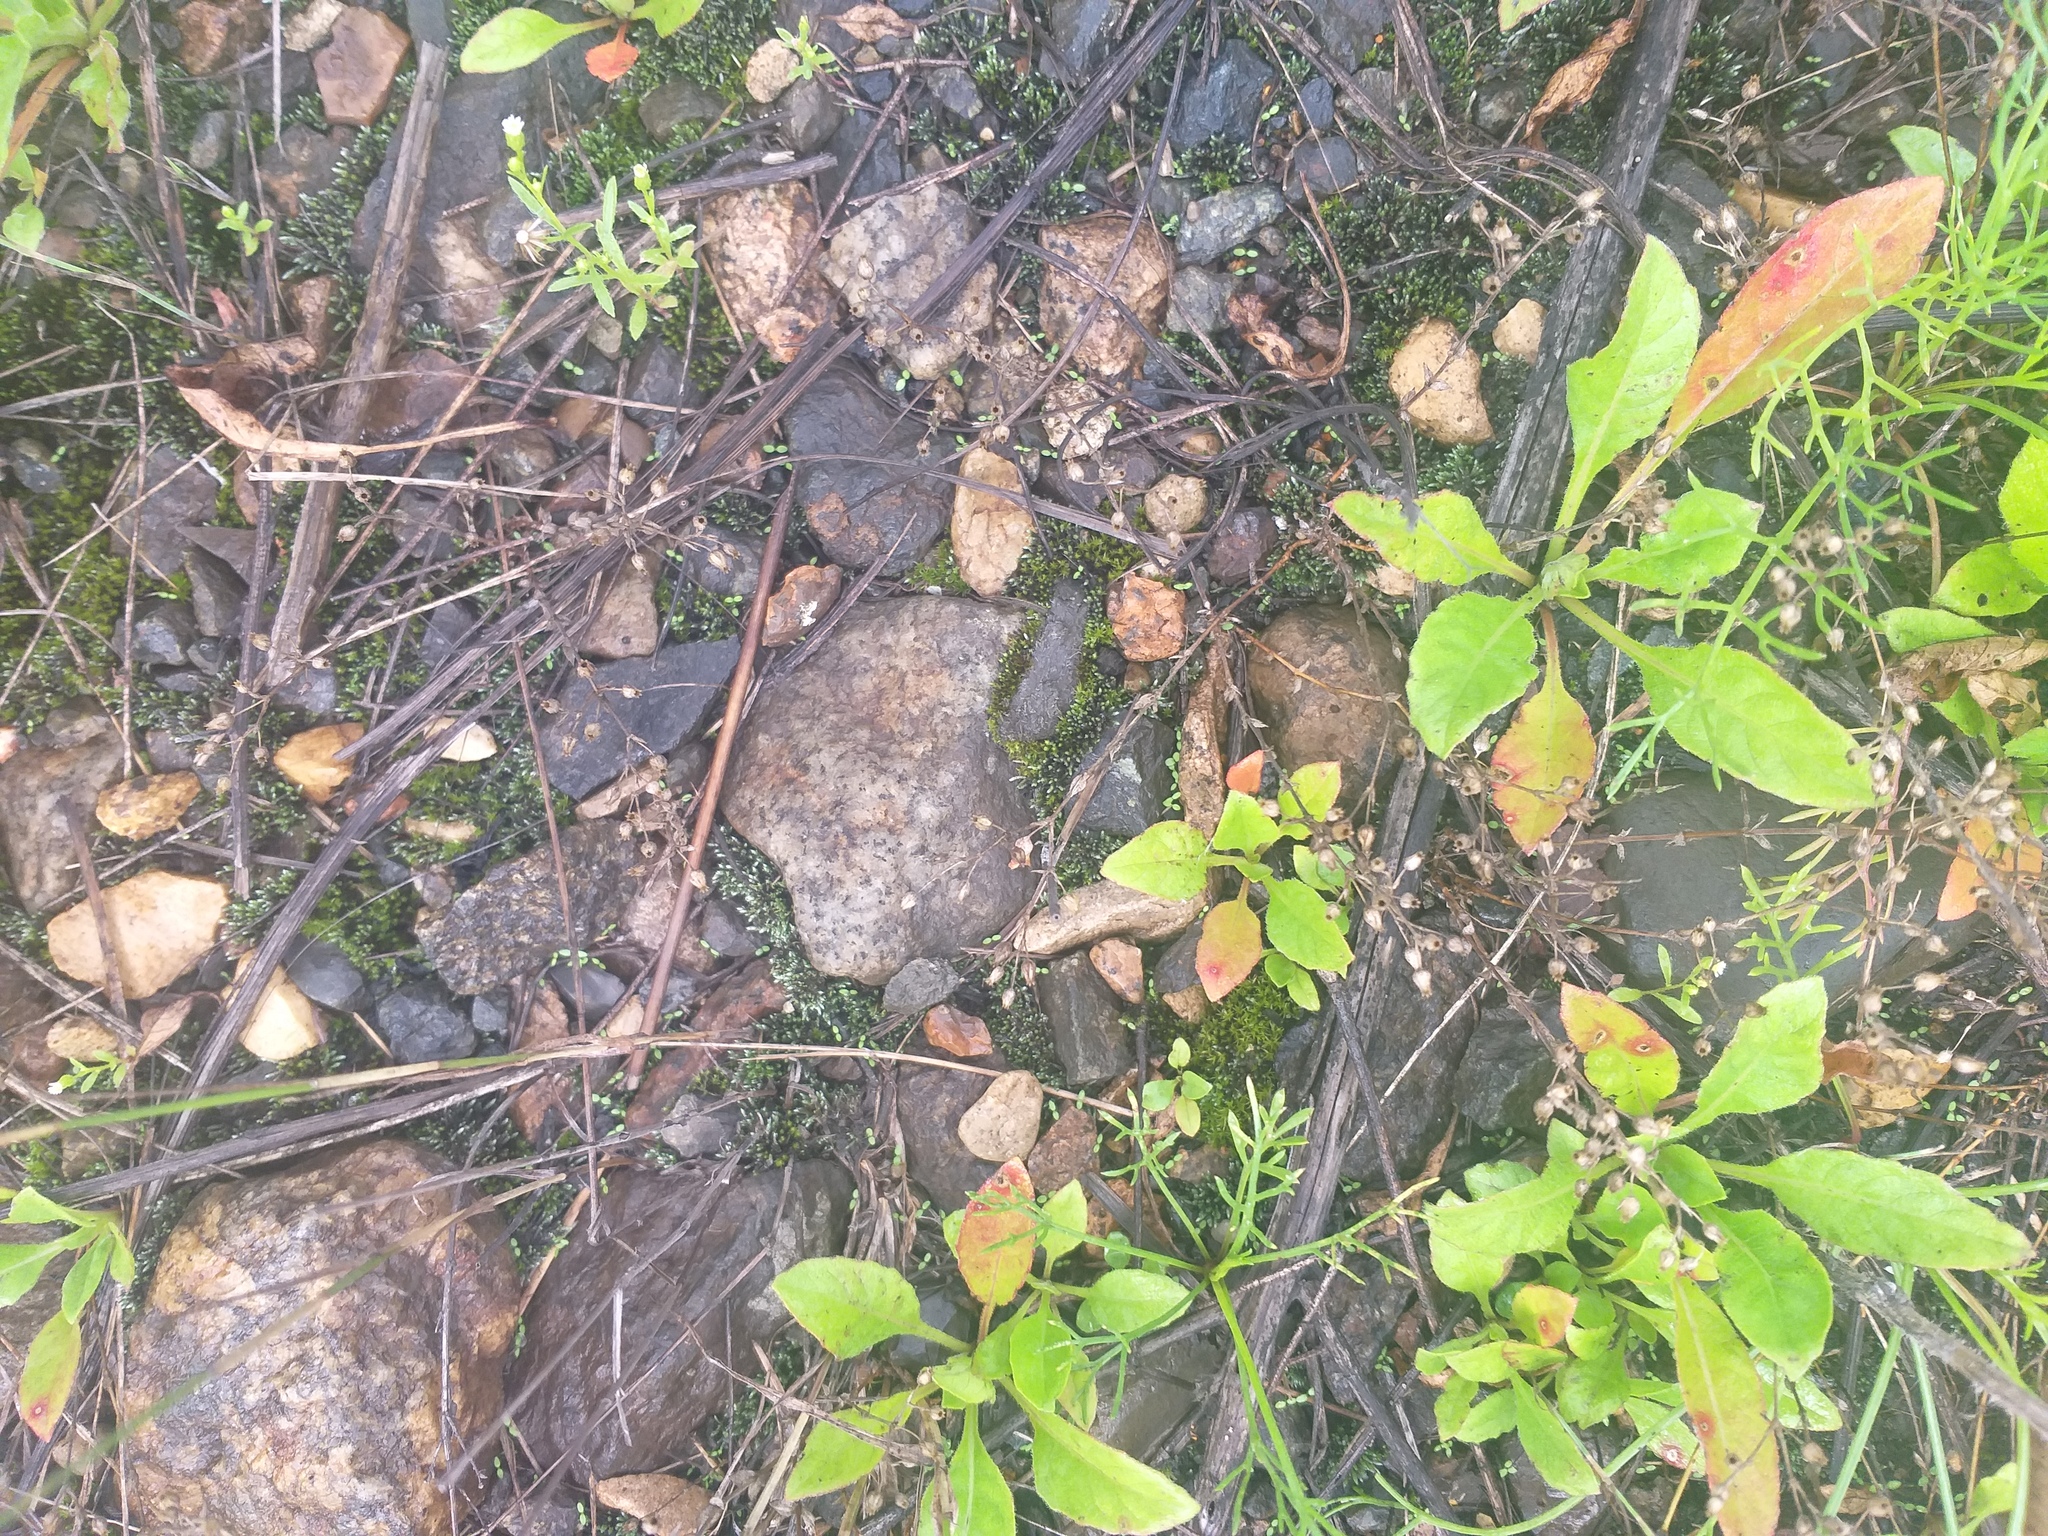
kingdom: Plantae
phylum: Tracheophyta
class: Magnoliopsida
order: Caryophyllales
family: Caryophyllaceae
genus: Arenaria
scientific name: Arenaria serpyllifolia
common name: Thyme-leaved sandwort
